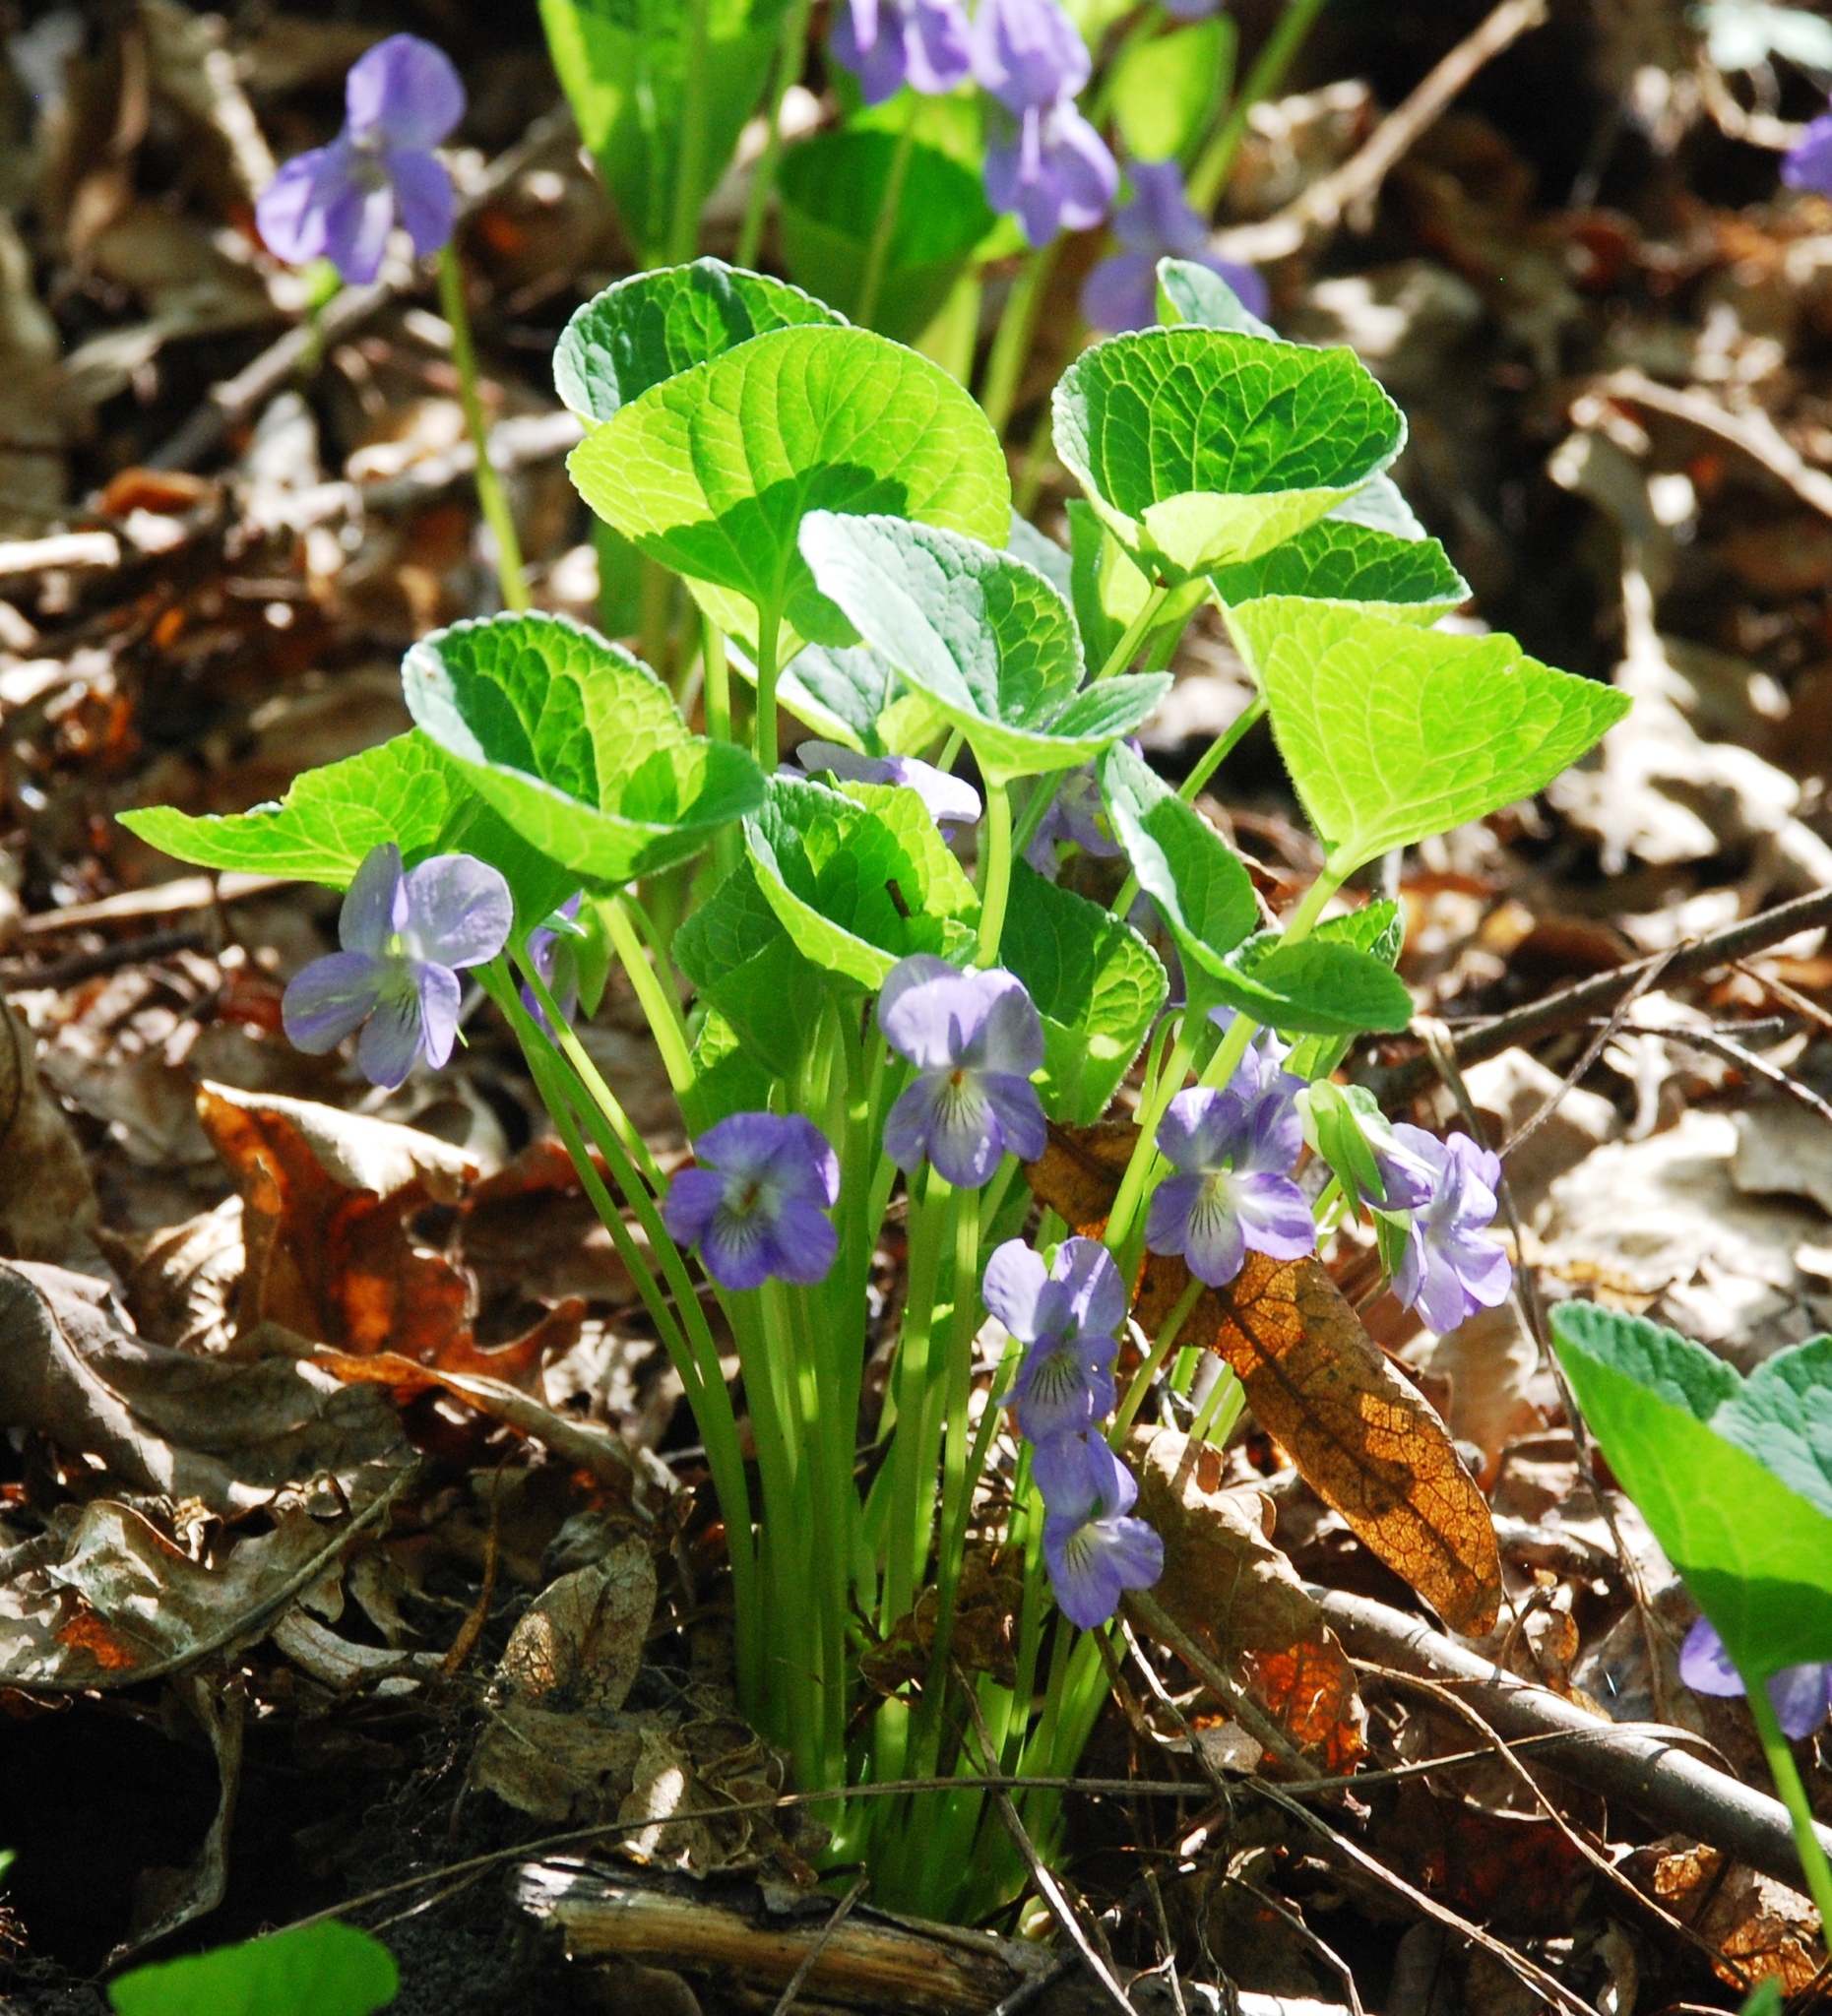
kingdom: Plantae
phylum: Tracheophyta
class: Magnoliopsida
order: Malpighiales
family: Violaceae
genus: Viola
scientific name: Viola mirabilis
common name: Wonder violet
